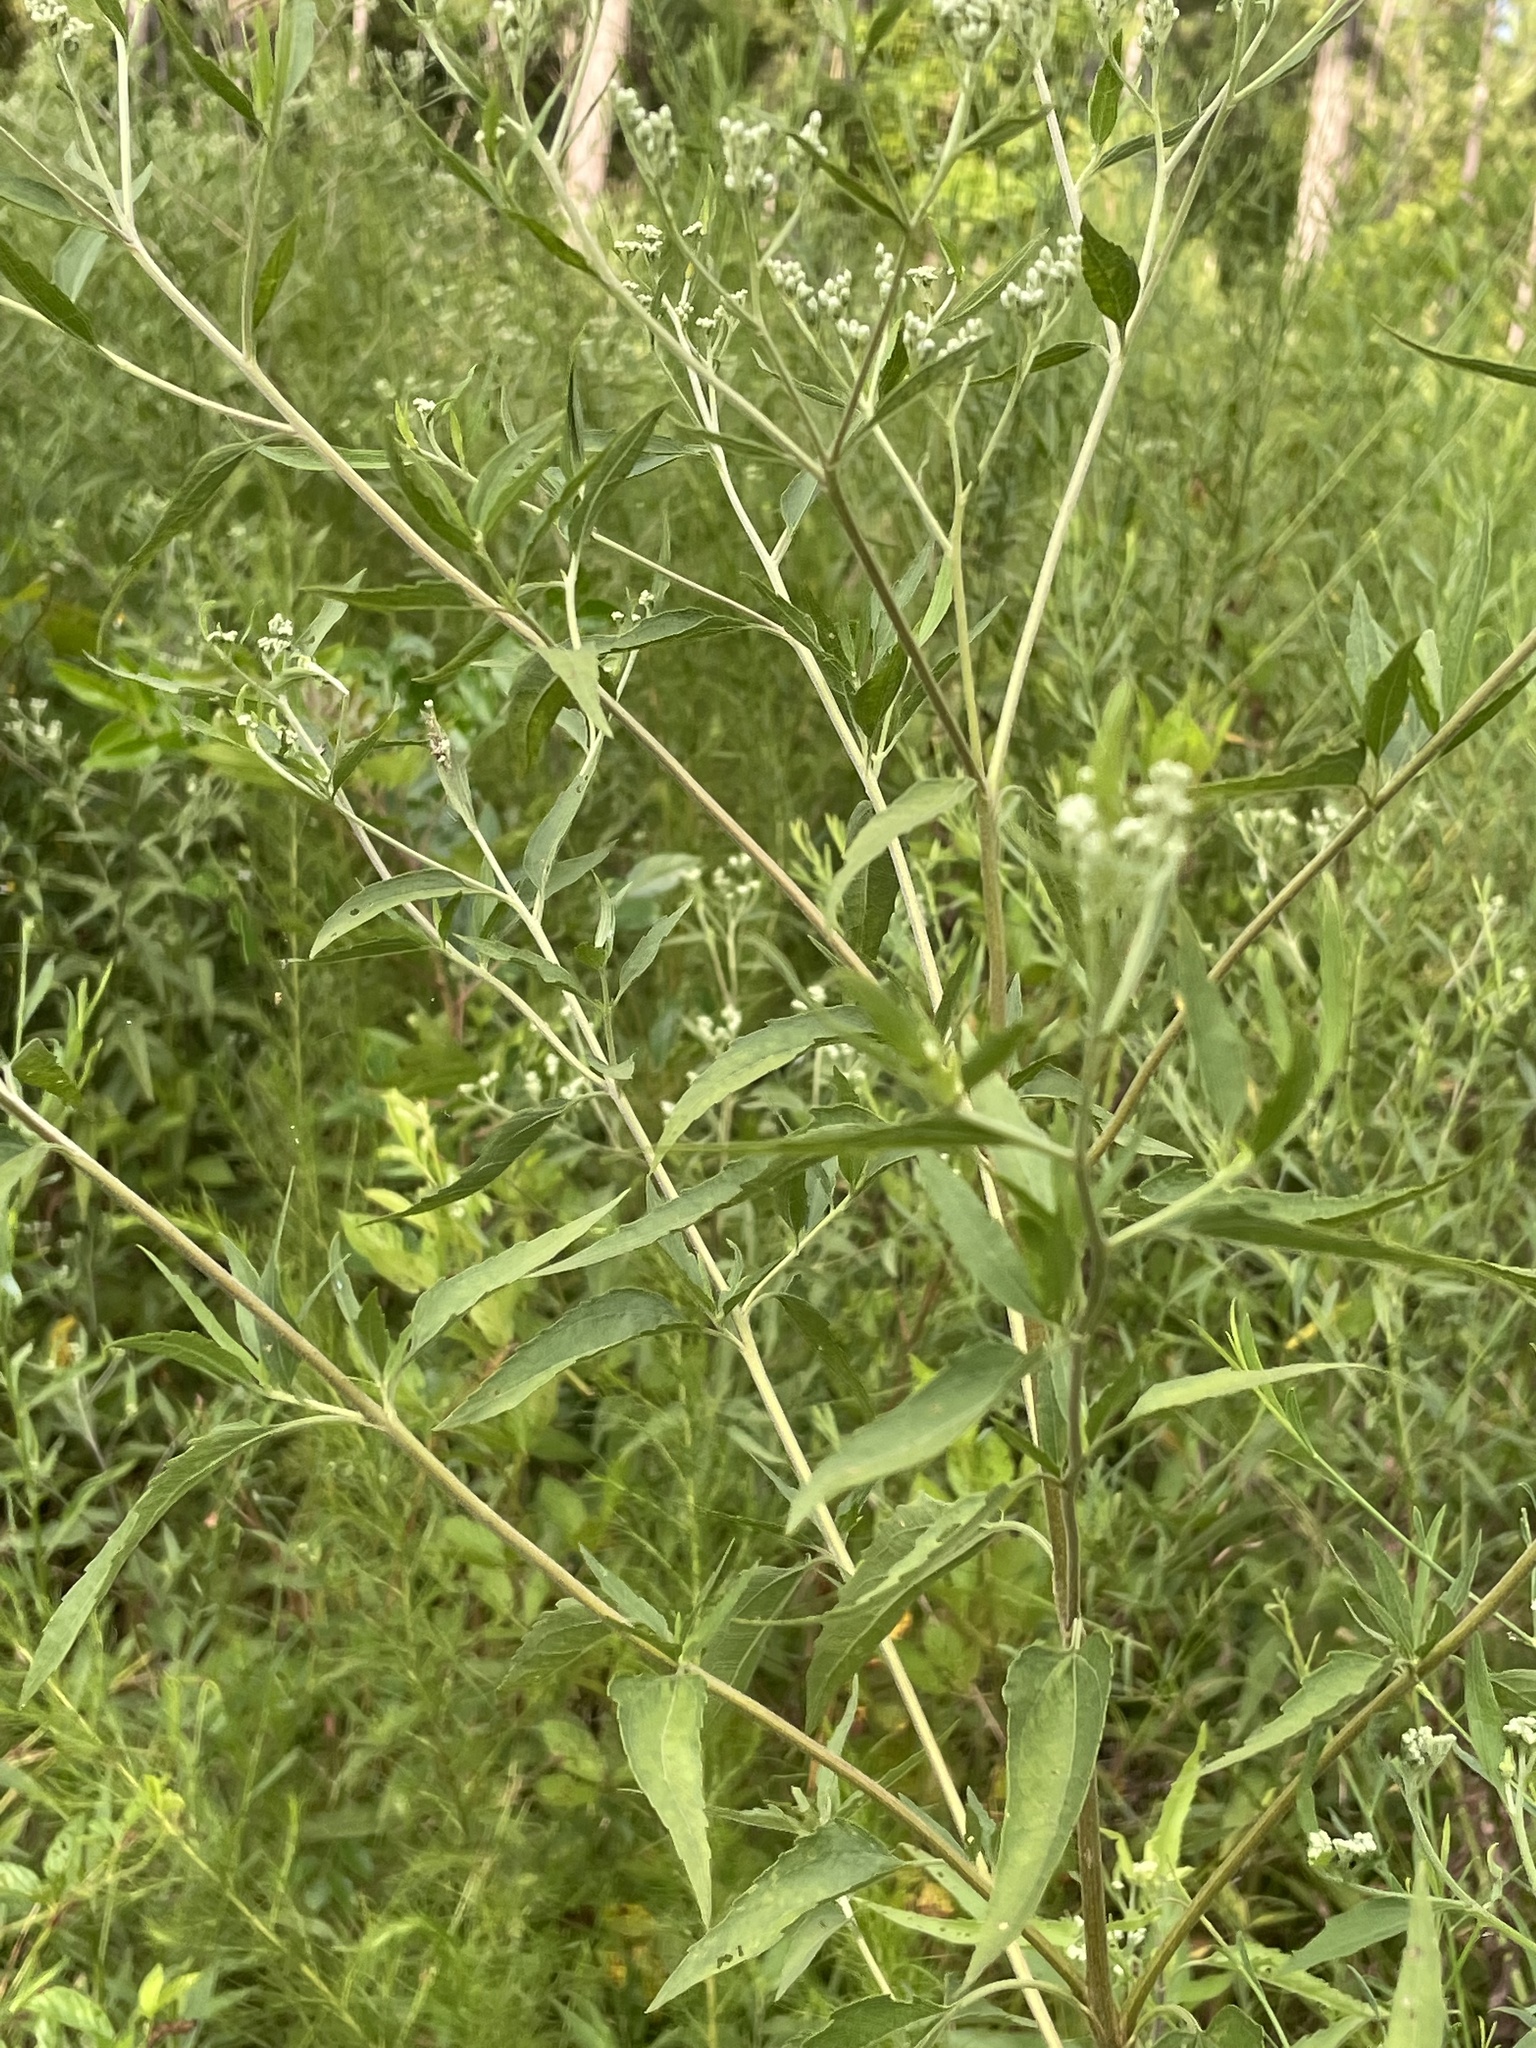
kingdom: Plantae
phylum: Tracheophyta
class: Magnoliopsida
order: Asterales
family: Asteraceae
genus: Eupatorium
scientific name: Eupatorium serotinum
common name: Late boneset
